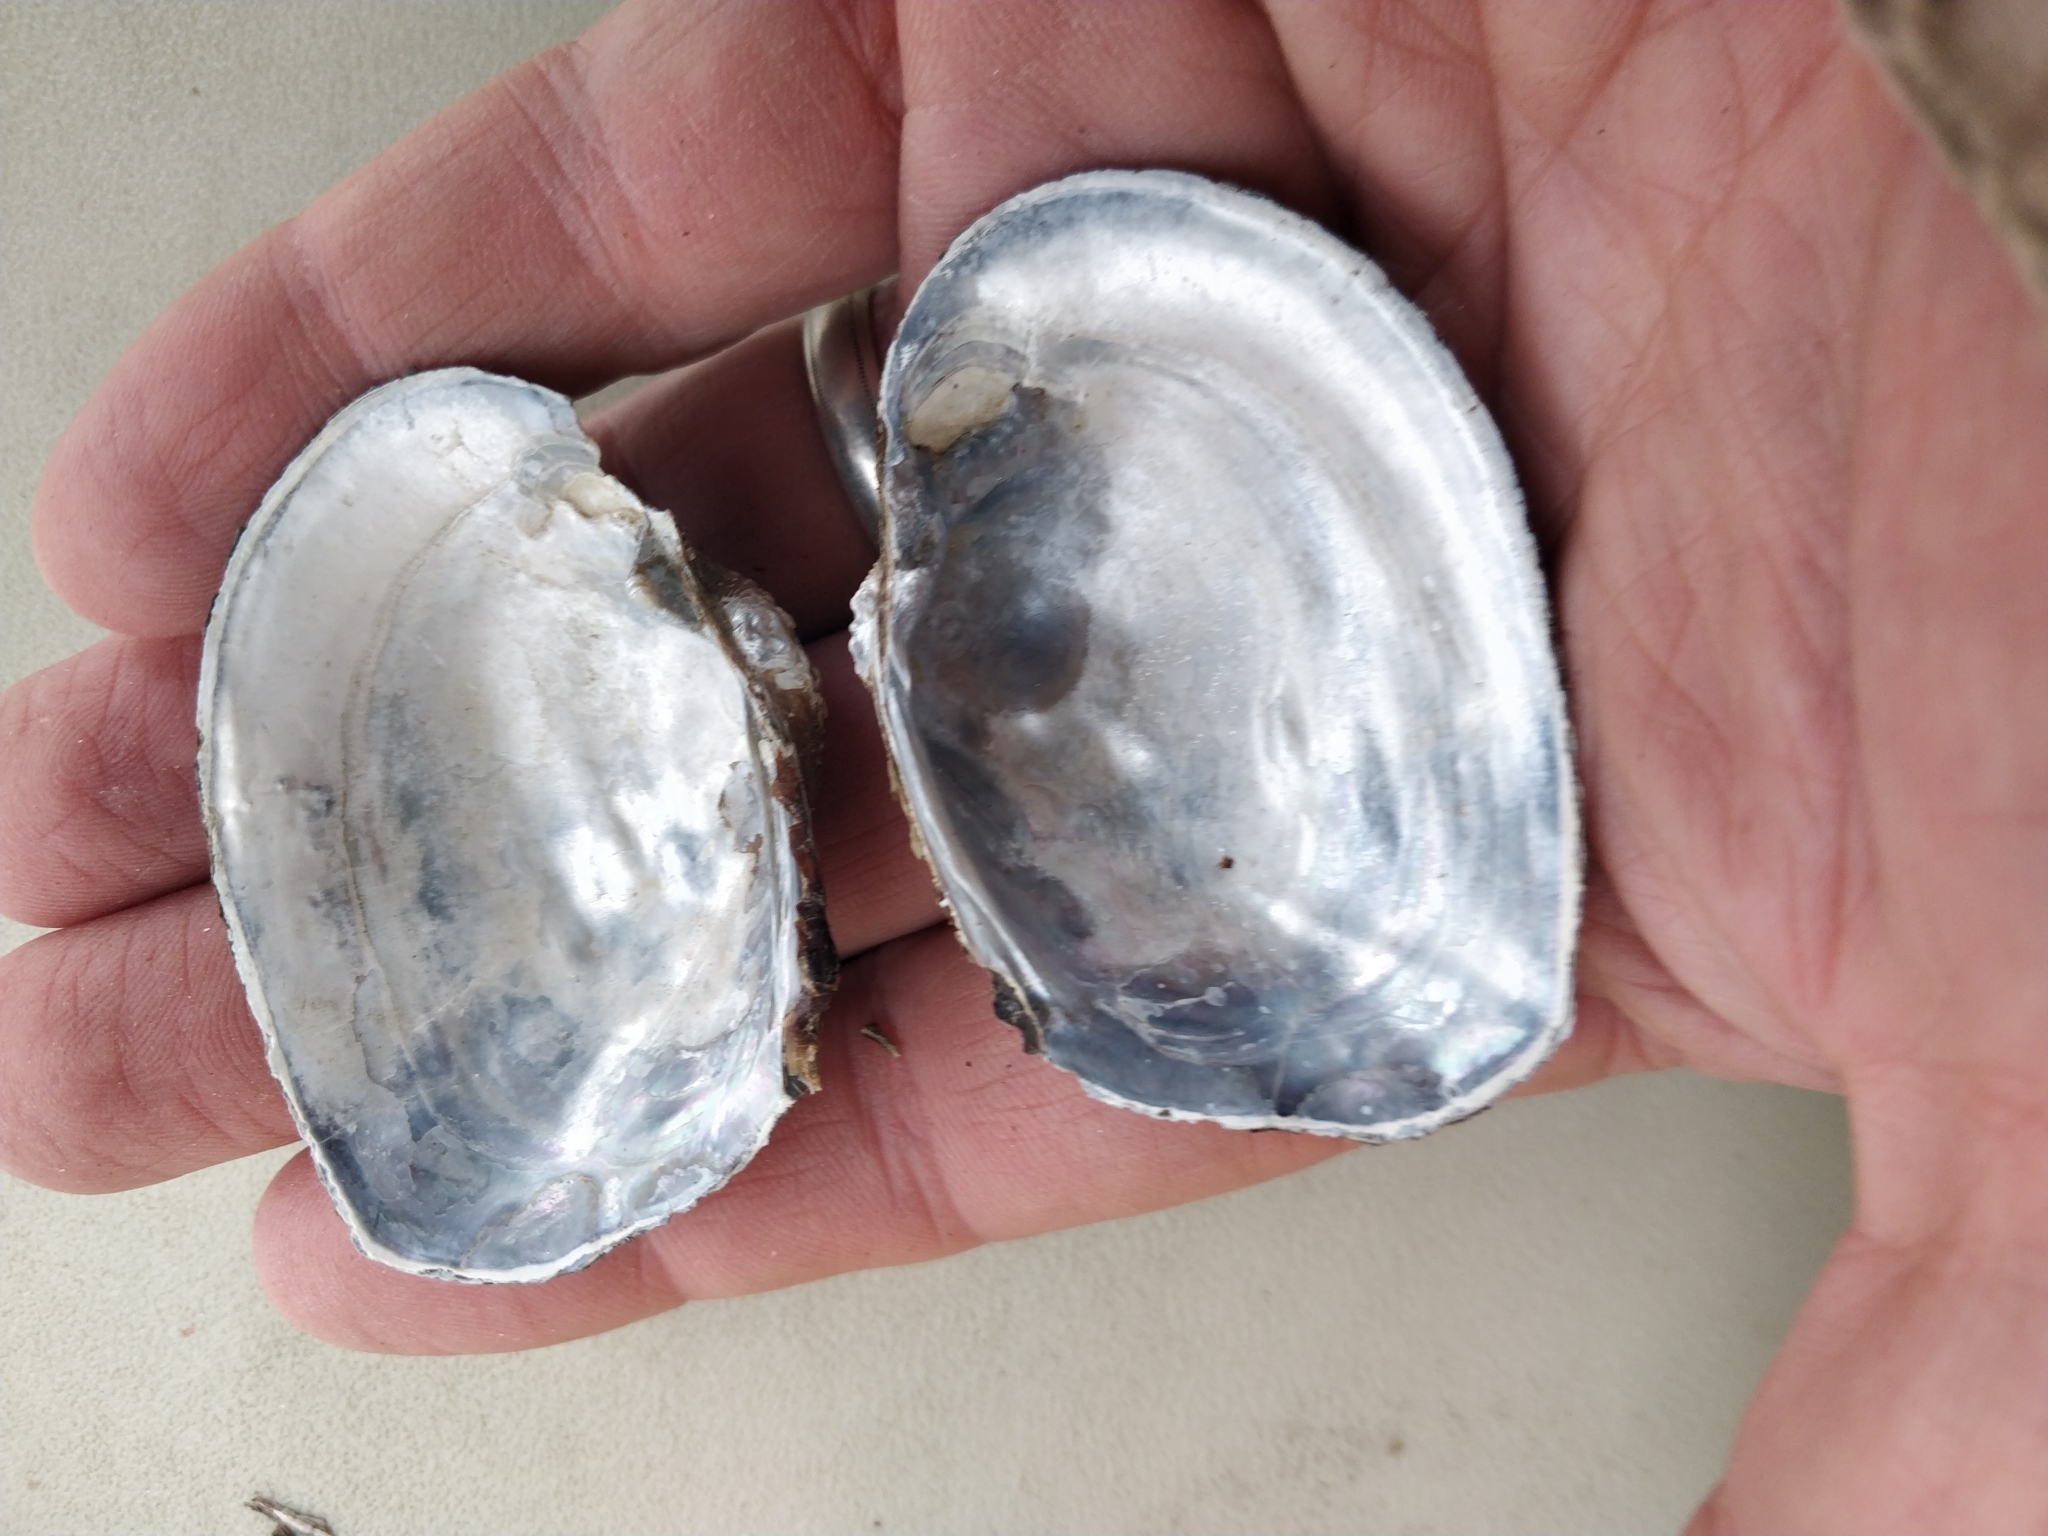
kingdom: Animalia
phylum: Mollusca
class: Bivalvia
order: Unionida
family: Unionidae
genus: Arcidens
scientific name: Arcidens confragosus
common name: Rock pocketbook
